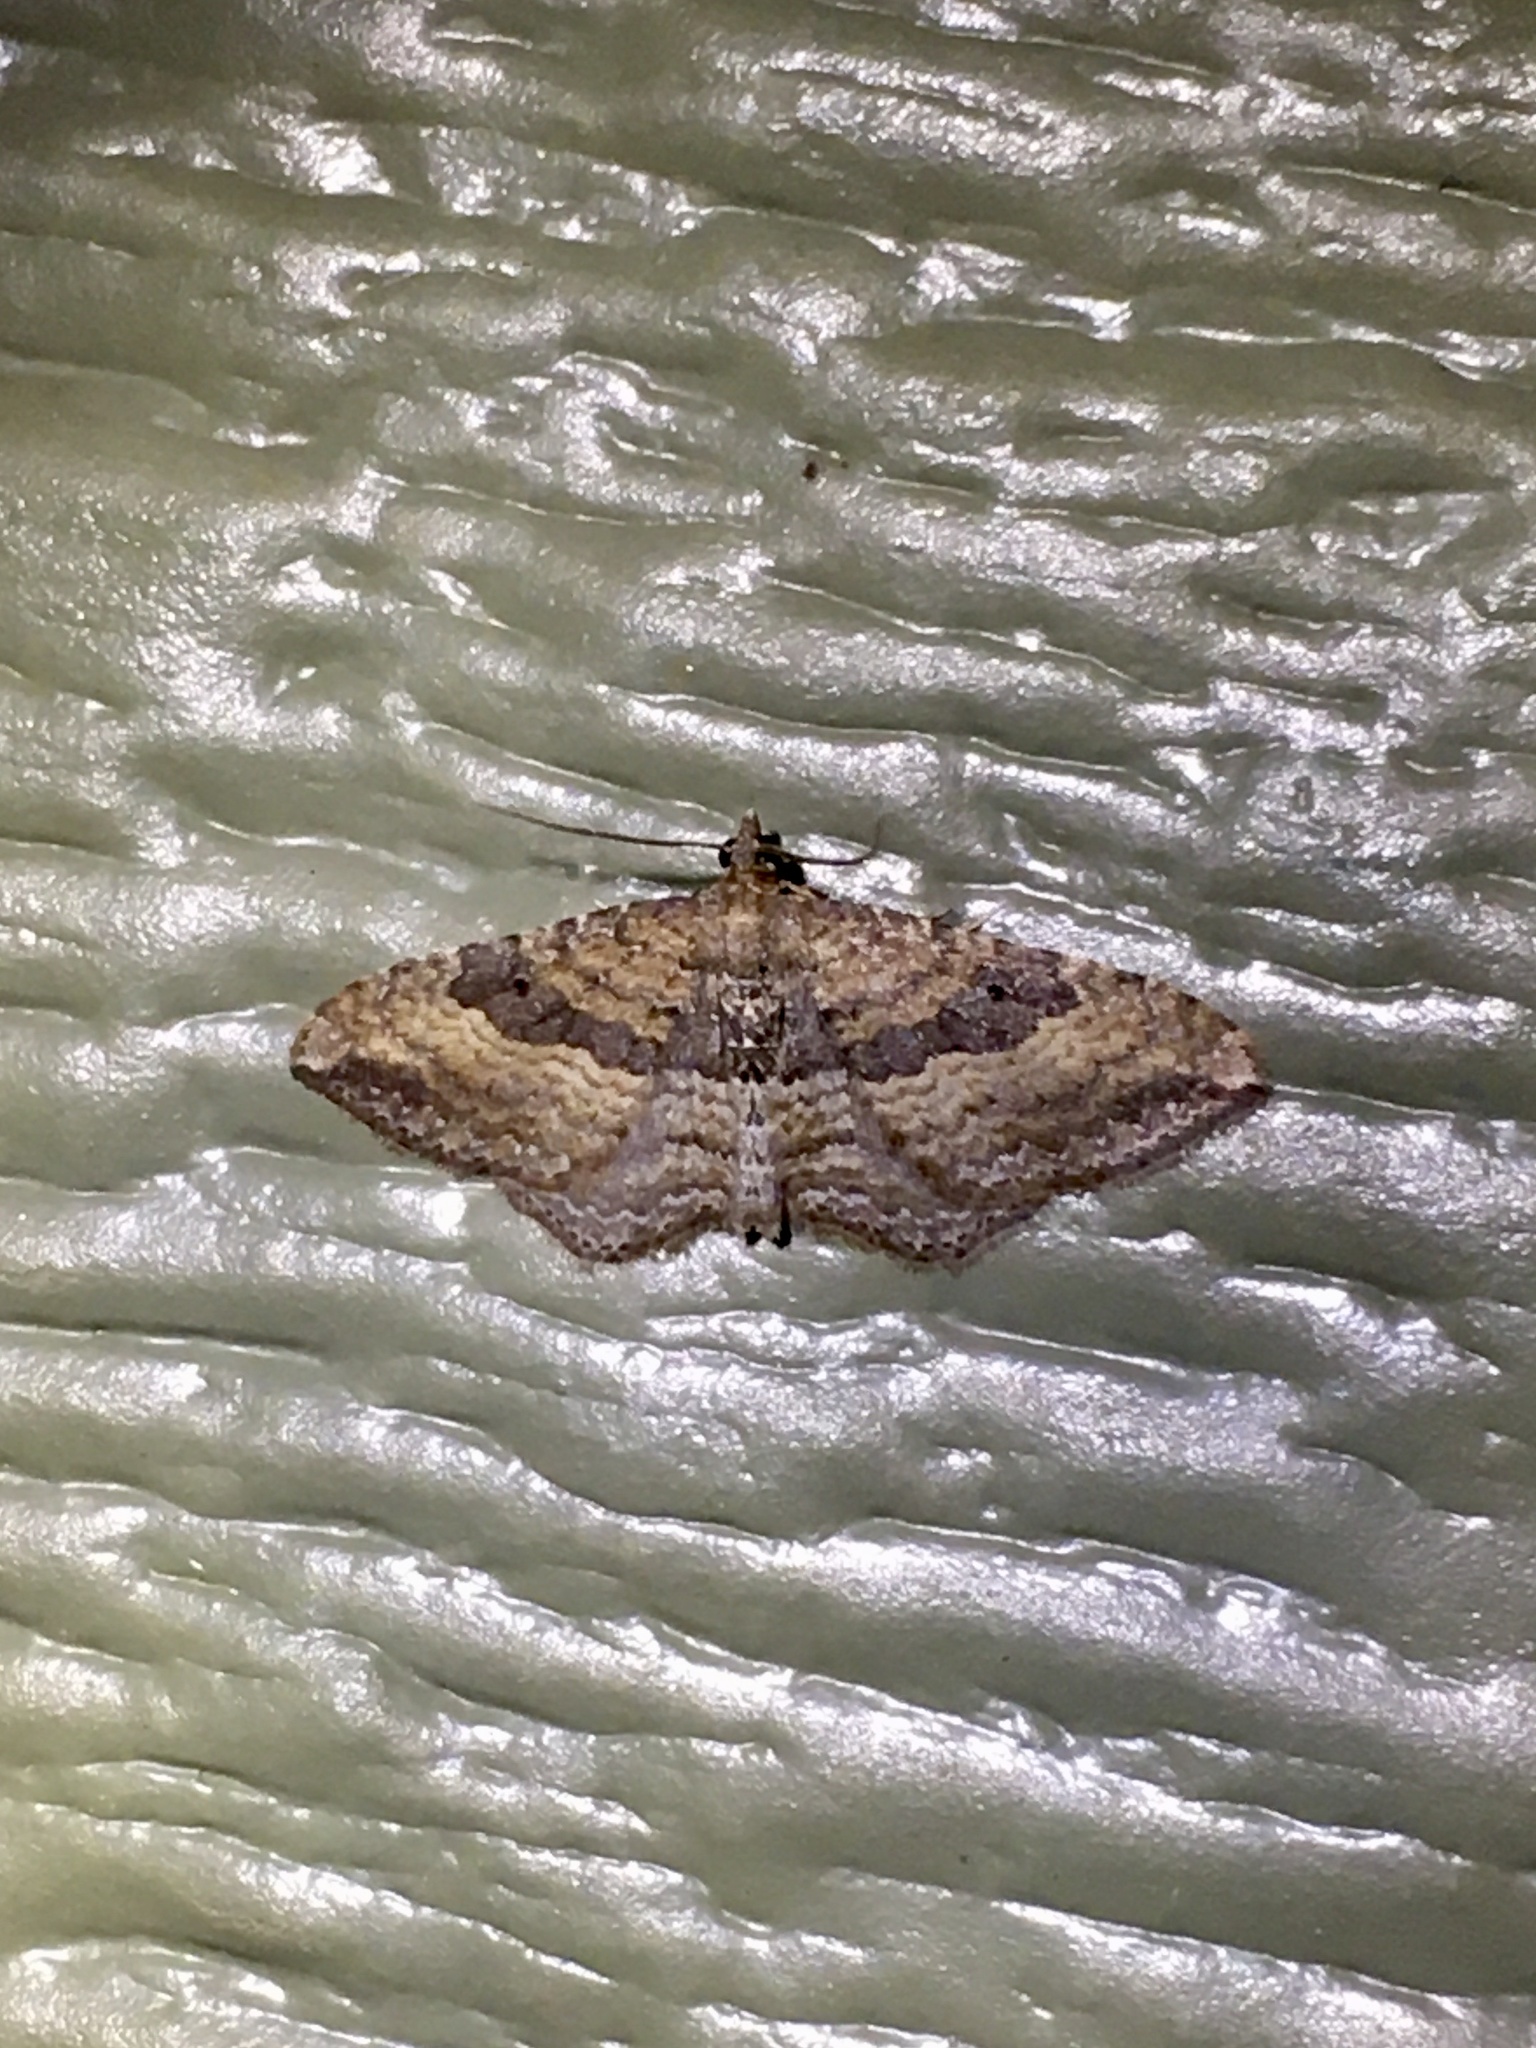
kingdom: Animalia
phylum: Arthropoda
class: Insecta
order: Lepidoptera
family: Geometridae
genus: Orthonama
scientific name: Orthonama obstipata
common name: The gem
